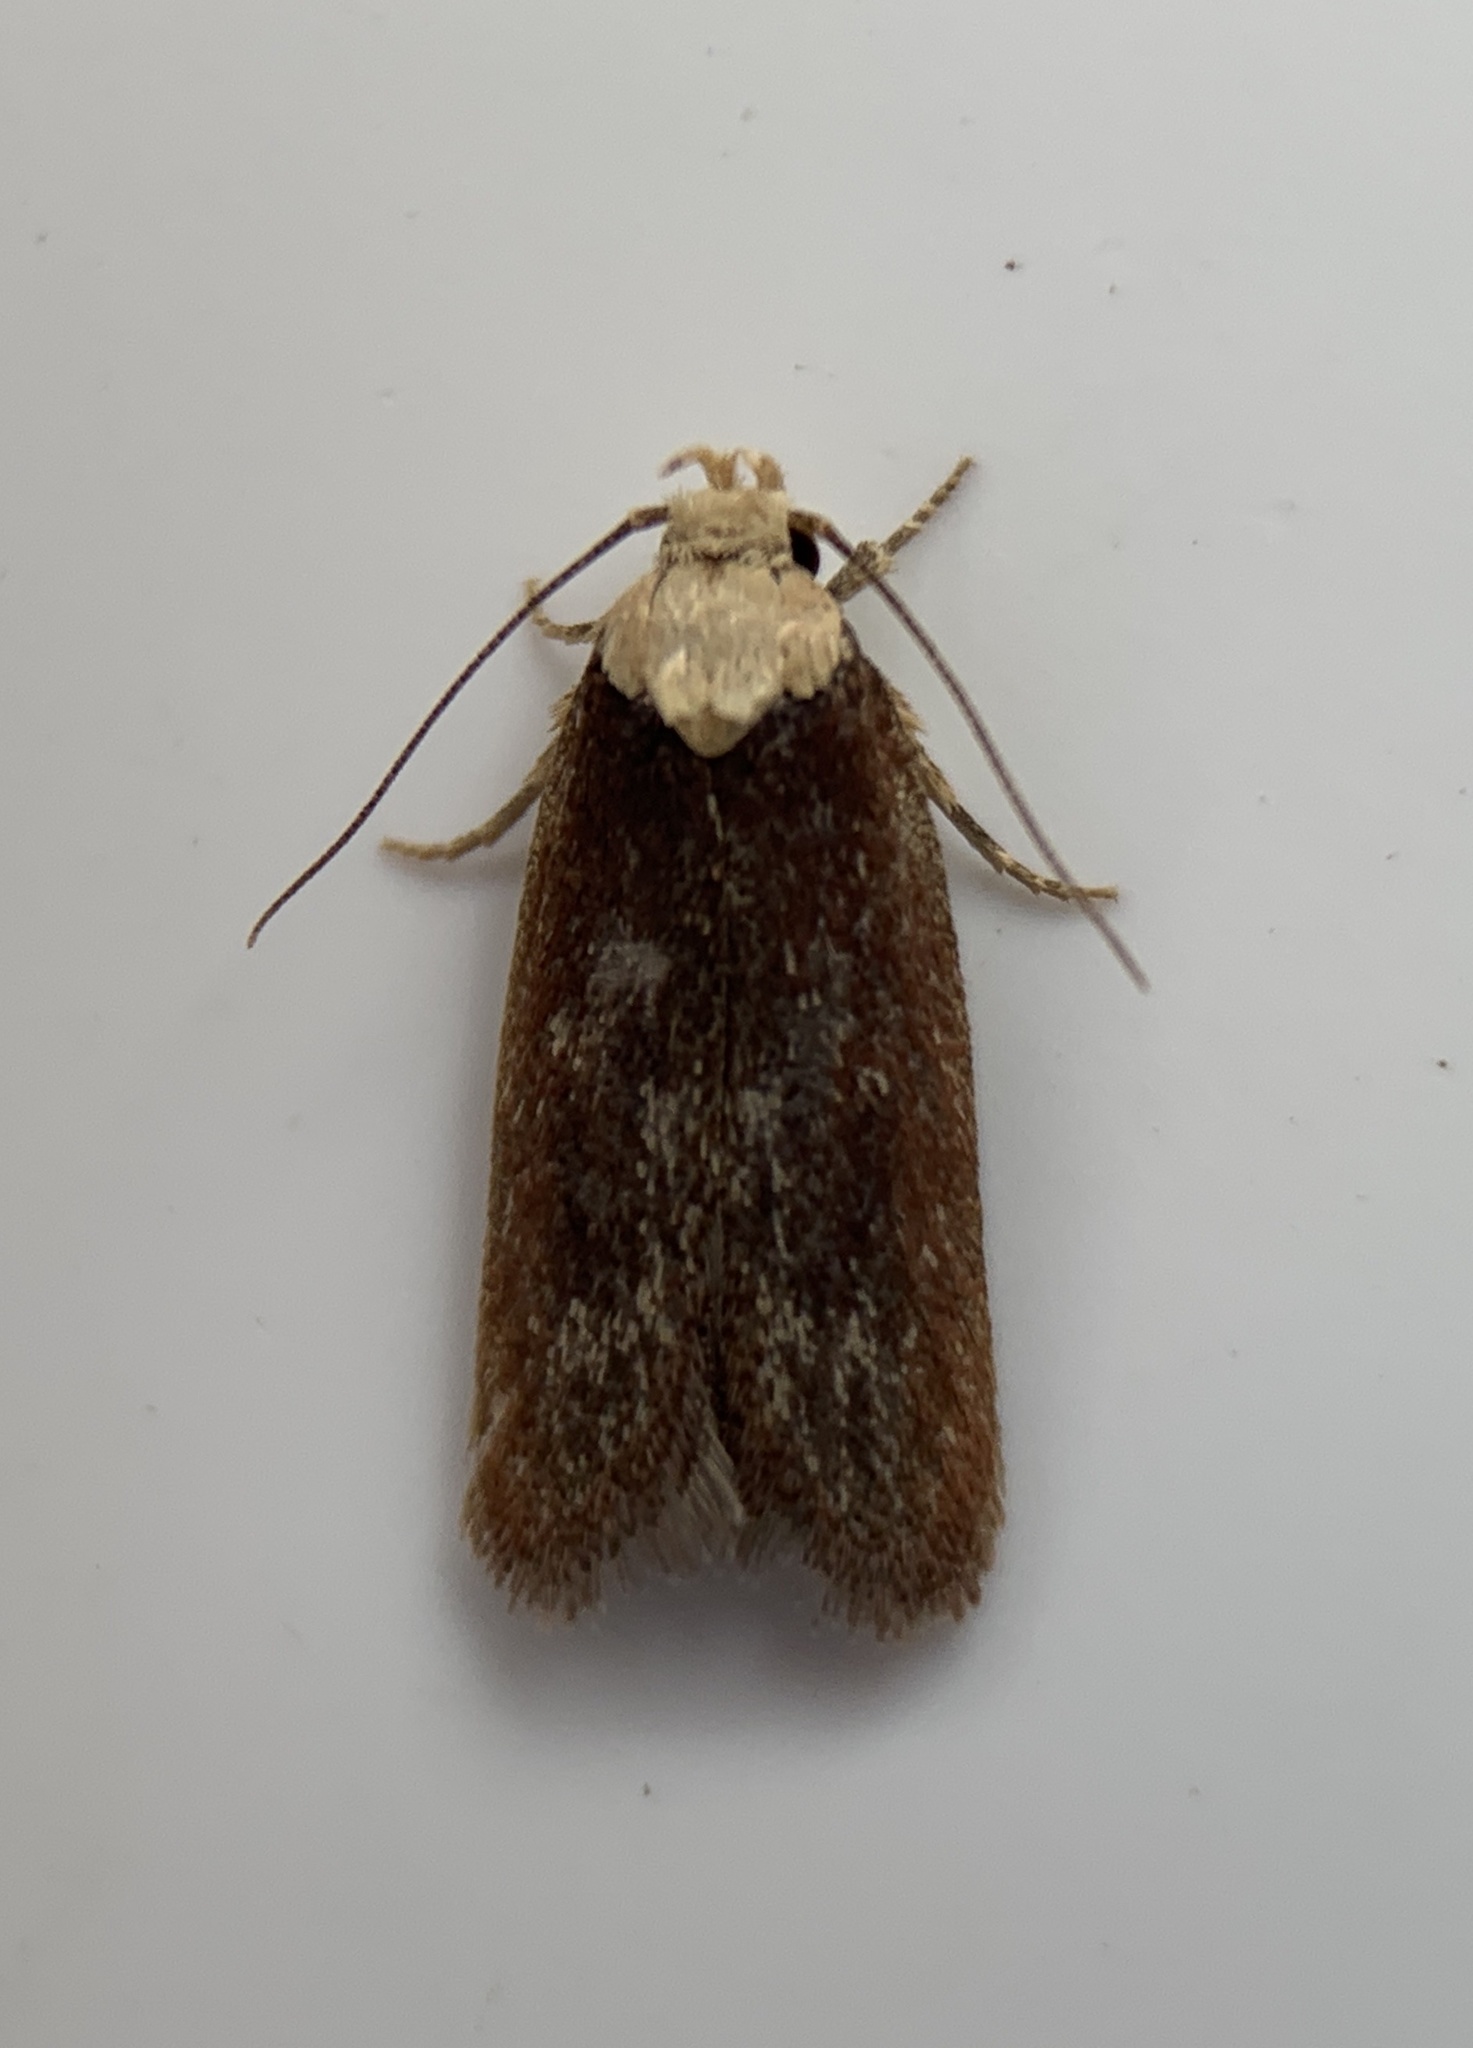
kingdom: Animalia
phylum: Arthropoda
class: Insecta
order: Lepidoptera
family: Depressariidae
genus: Depressaria
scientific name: Depressaria depressana
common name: Lost flat-body
